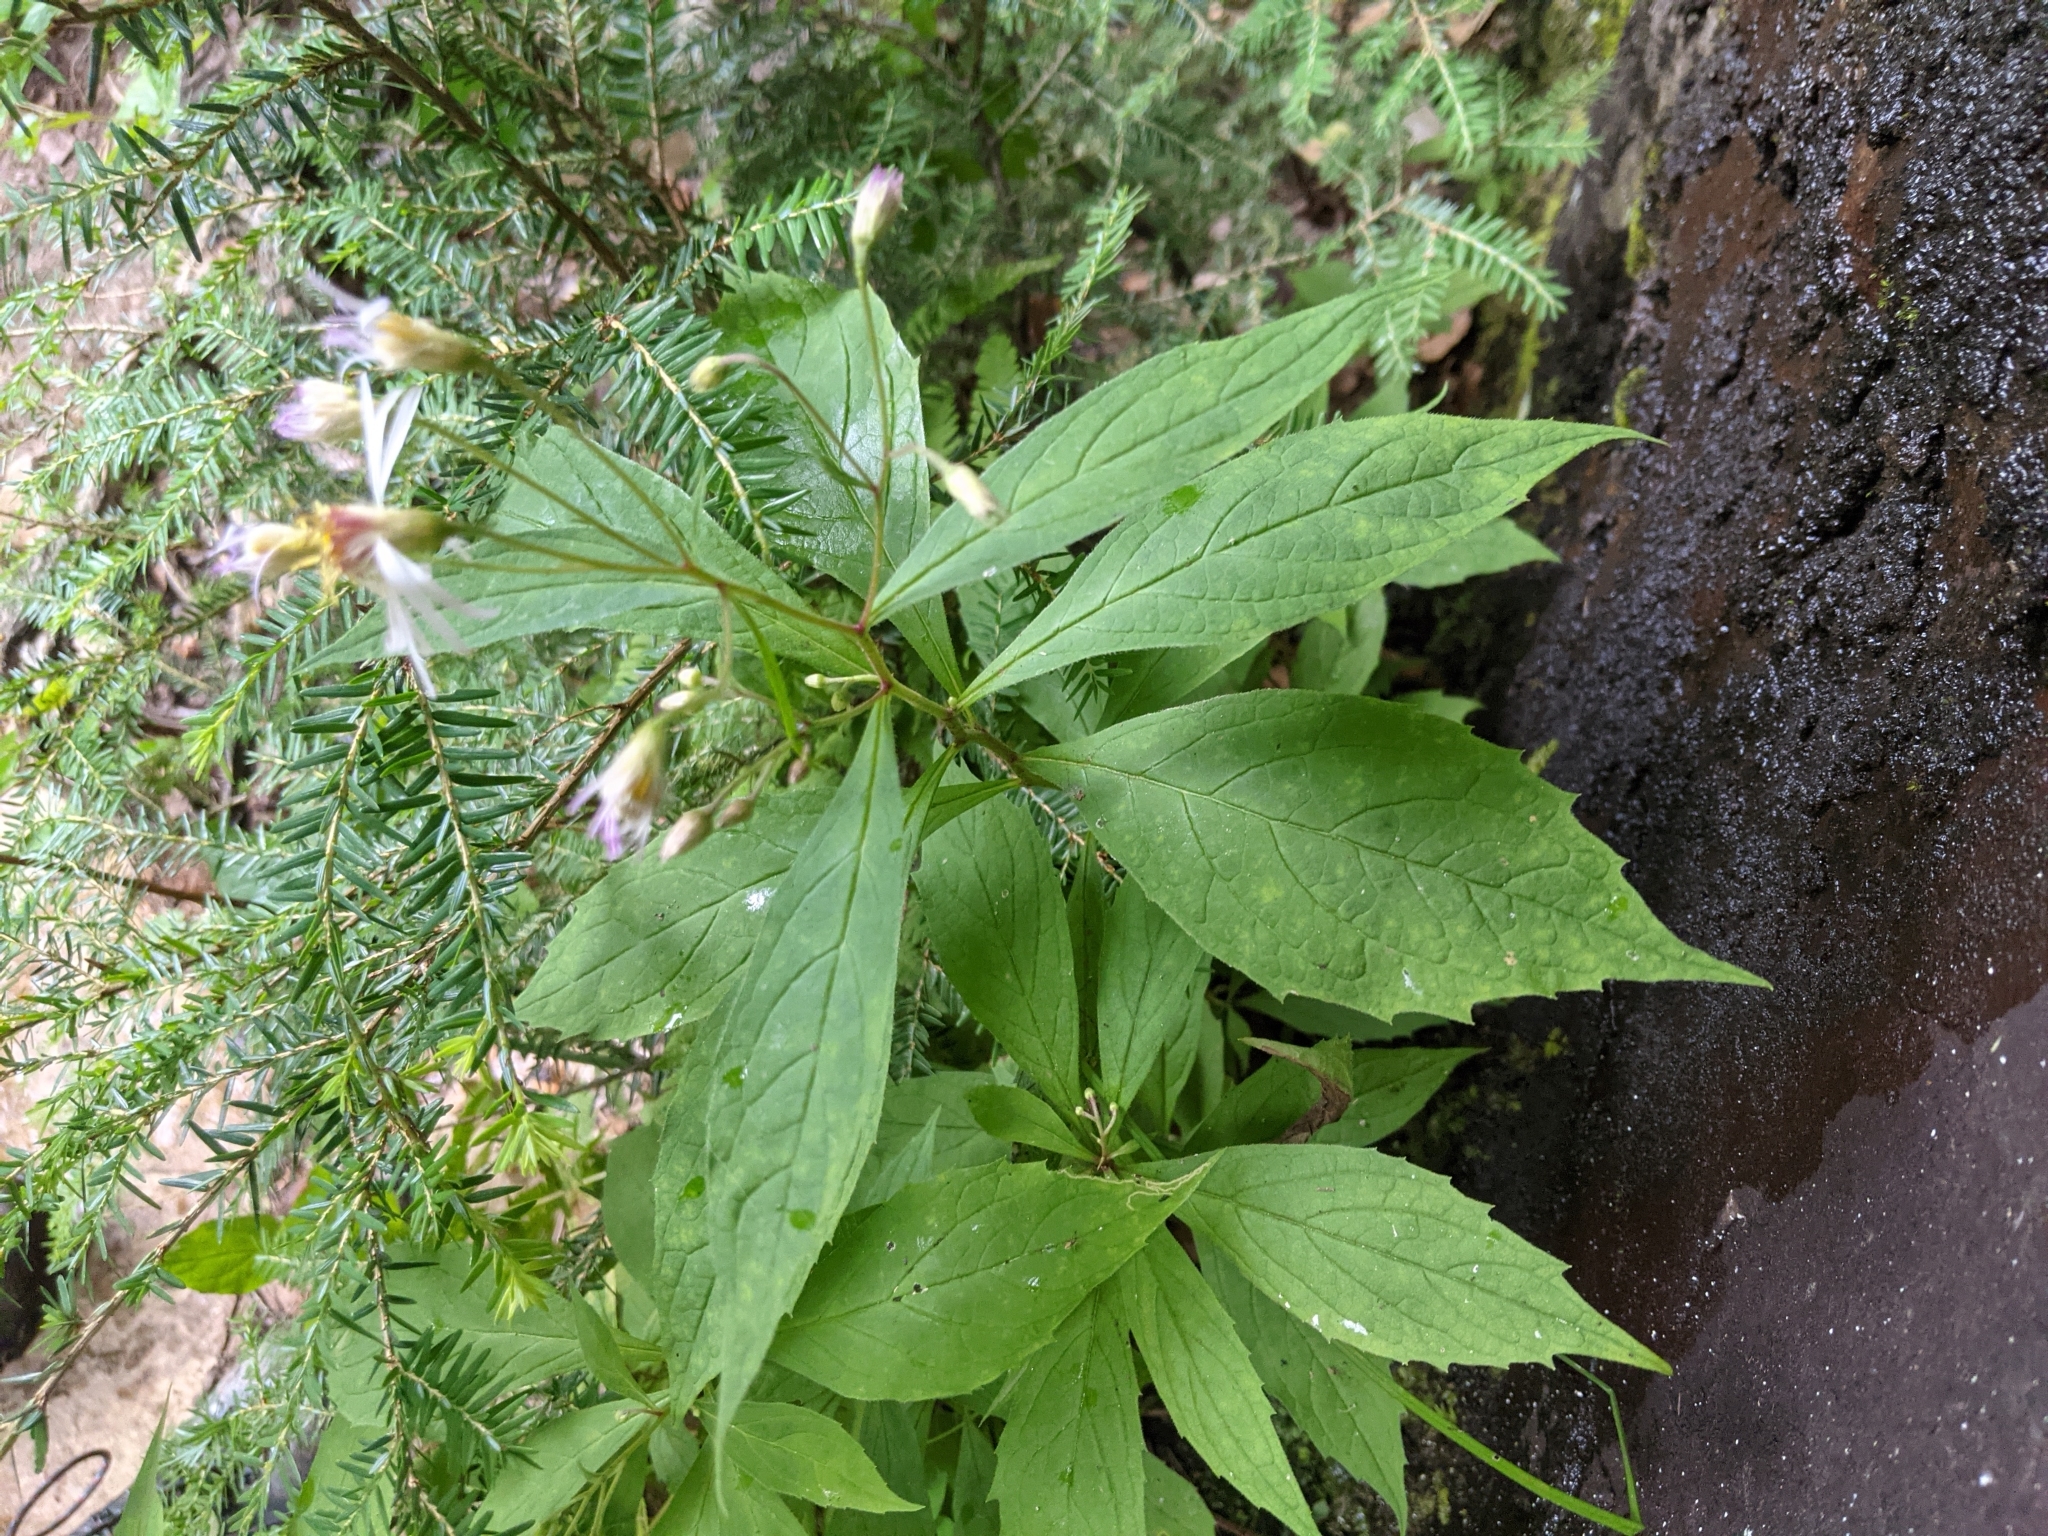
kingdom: Plantae
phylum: Tracheophyta
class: Magnoliopsida
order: Asterales
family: Asteraceae
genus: Oclemena
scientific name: Oclemena acuminata
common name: Mountain aster
